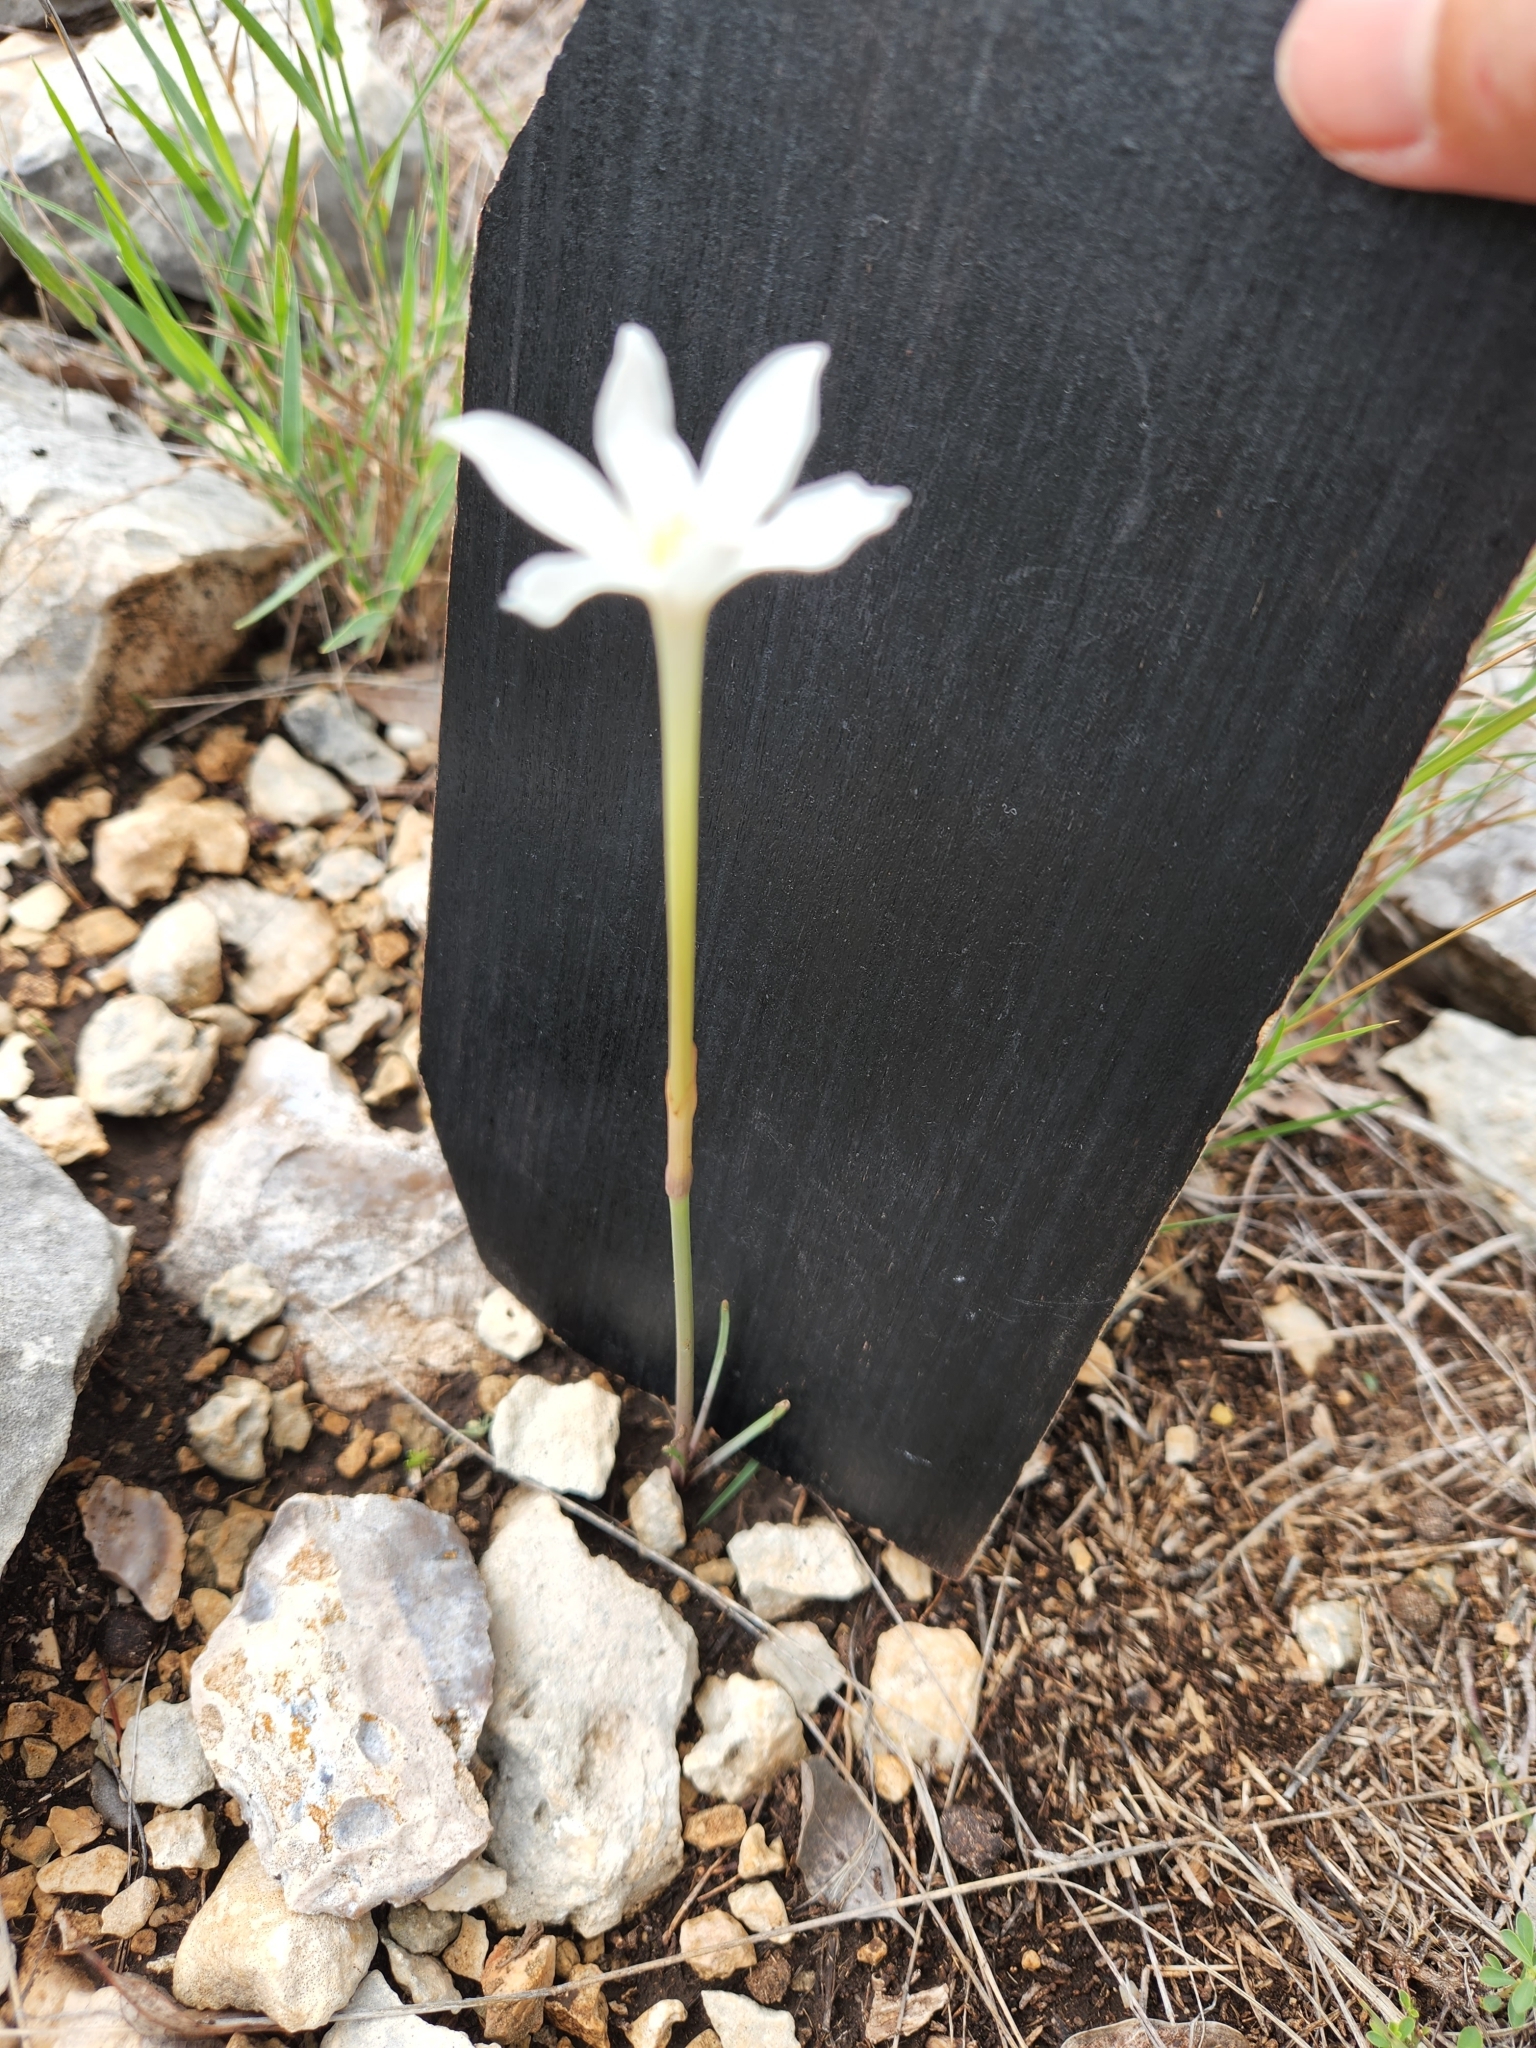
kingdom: Plantae
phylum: Tracheophyta
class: Liliopsida
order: Asparagales
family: Amaryllidaceae
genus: Zephyranthes
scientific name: Zephyranthes chlorosolen
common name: Evening rain-lily
